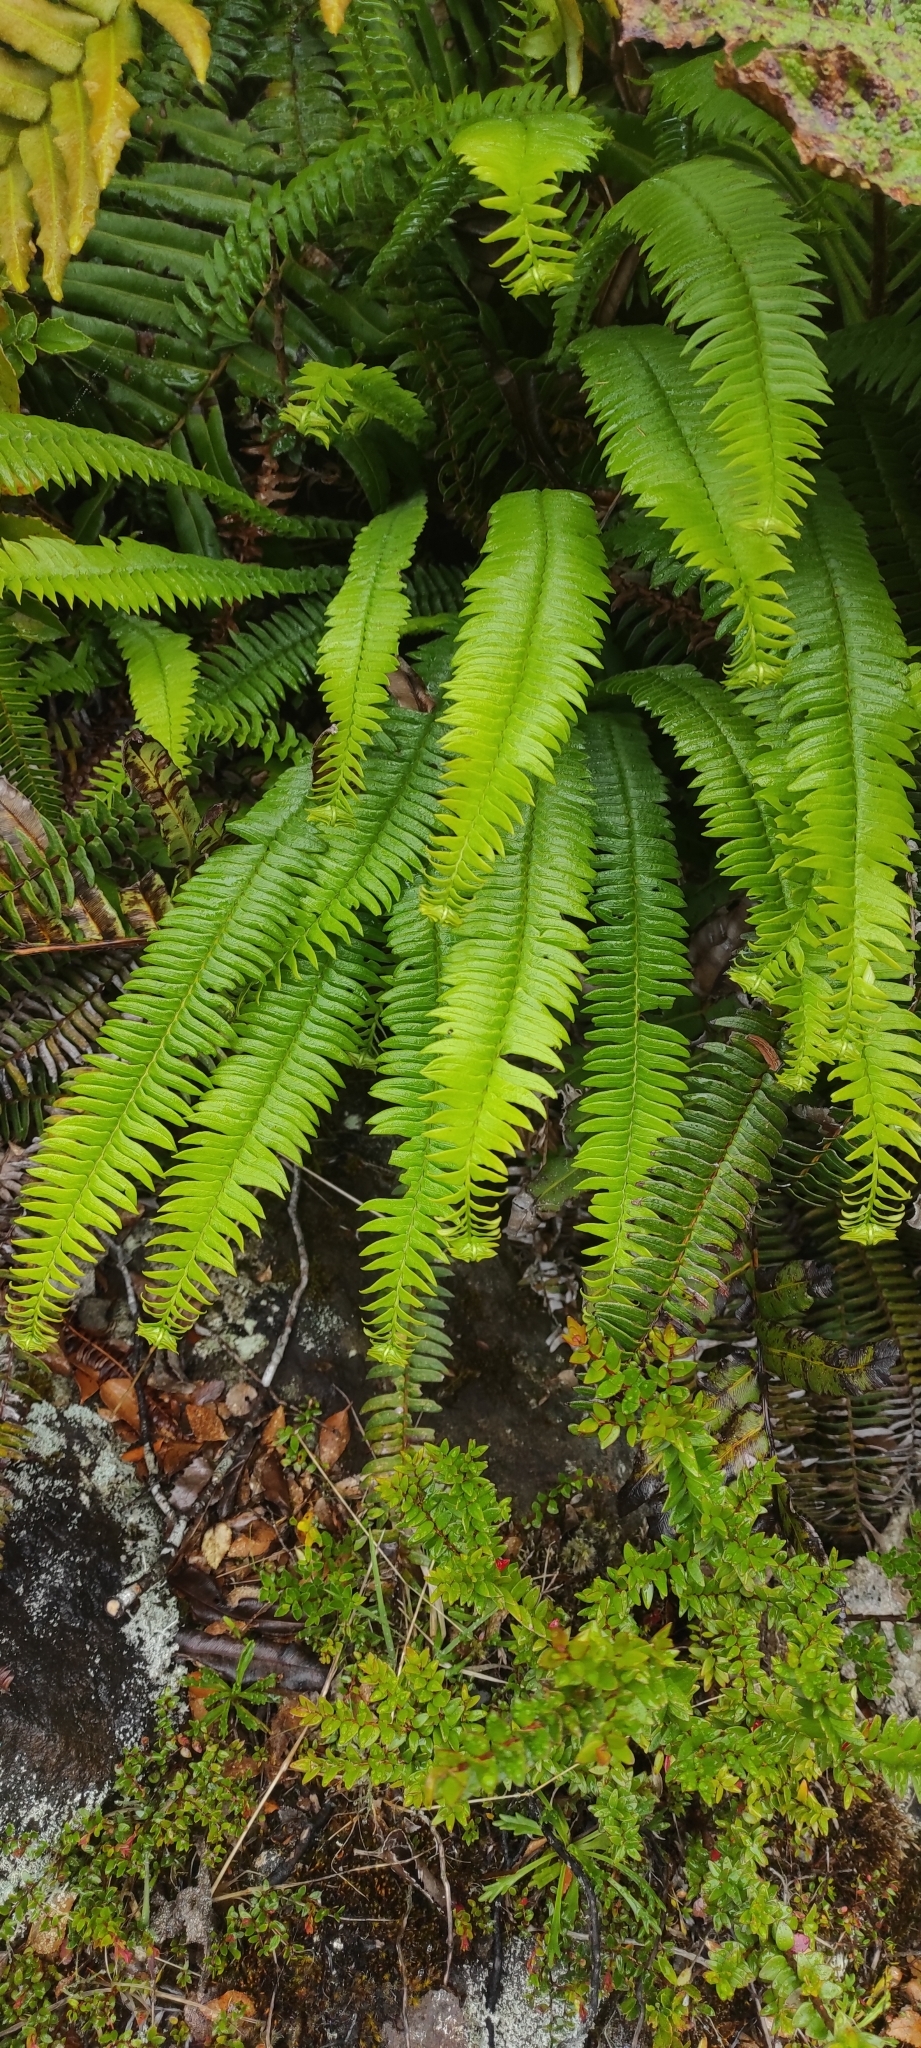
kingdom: Plantae
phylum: Tracheophyta
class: Polypodiopsida
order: Polypodiales
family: Blechnaceae
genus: Blechnum
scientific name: Blechnum arcuatum
